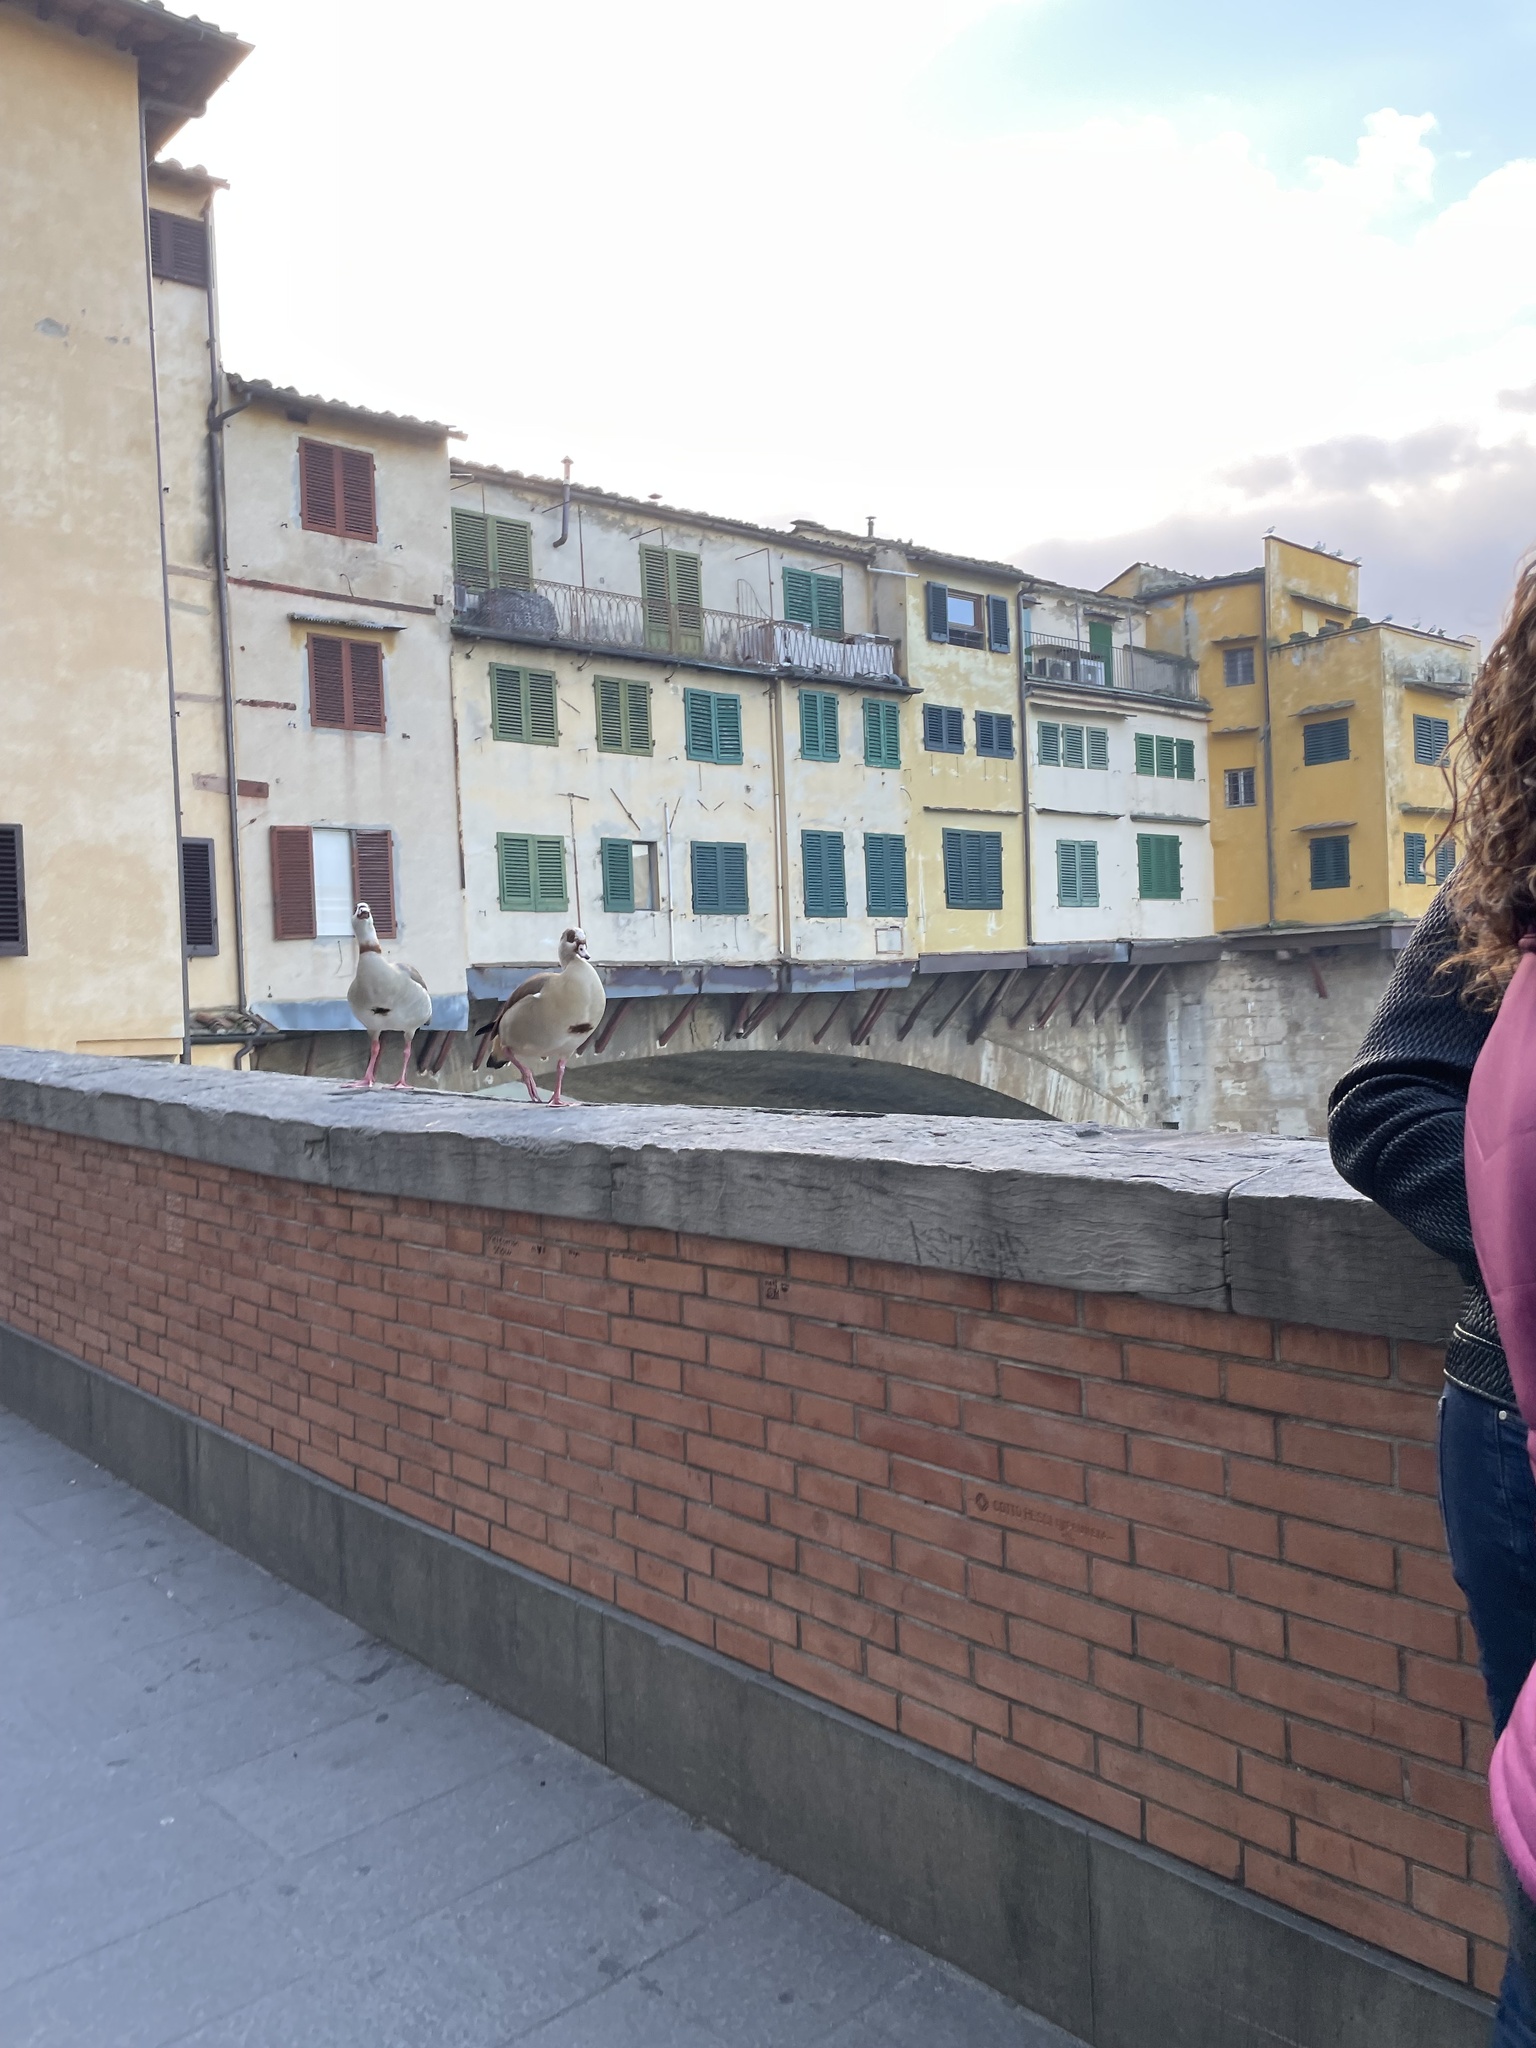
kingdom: Animalia
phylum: Chordata
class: Aves
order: Anseriformes
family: Anatidae
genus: Alopochen
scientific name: Alopochen aegyptiaca
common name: Egyptian goose
